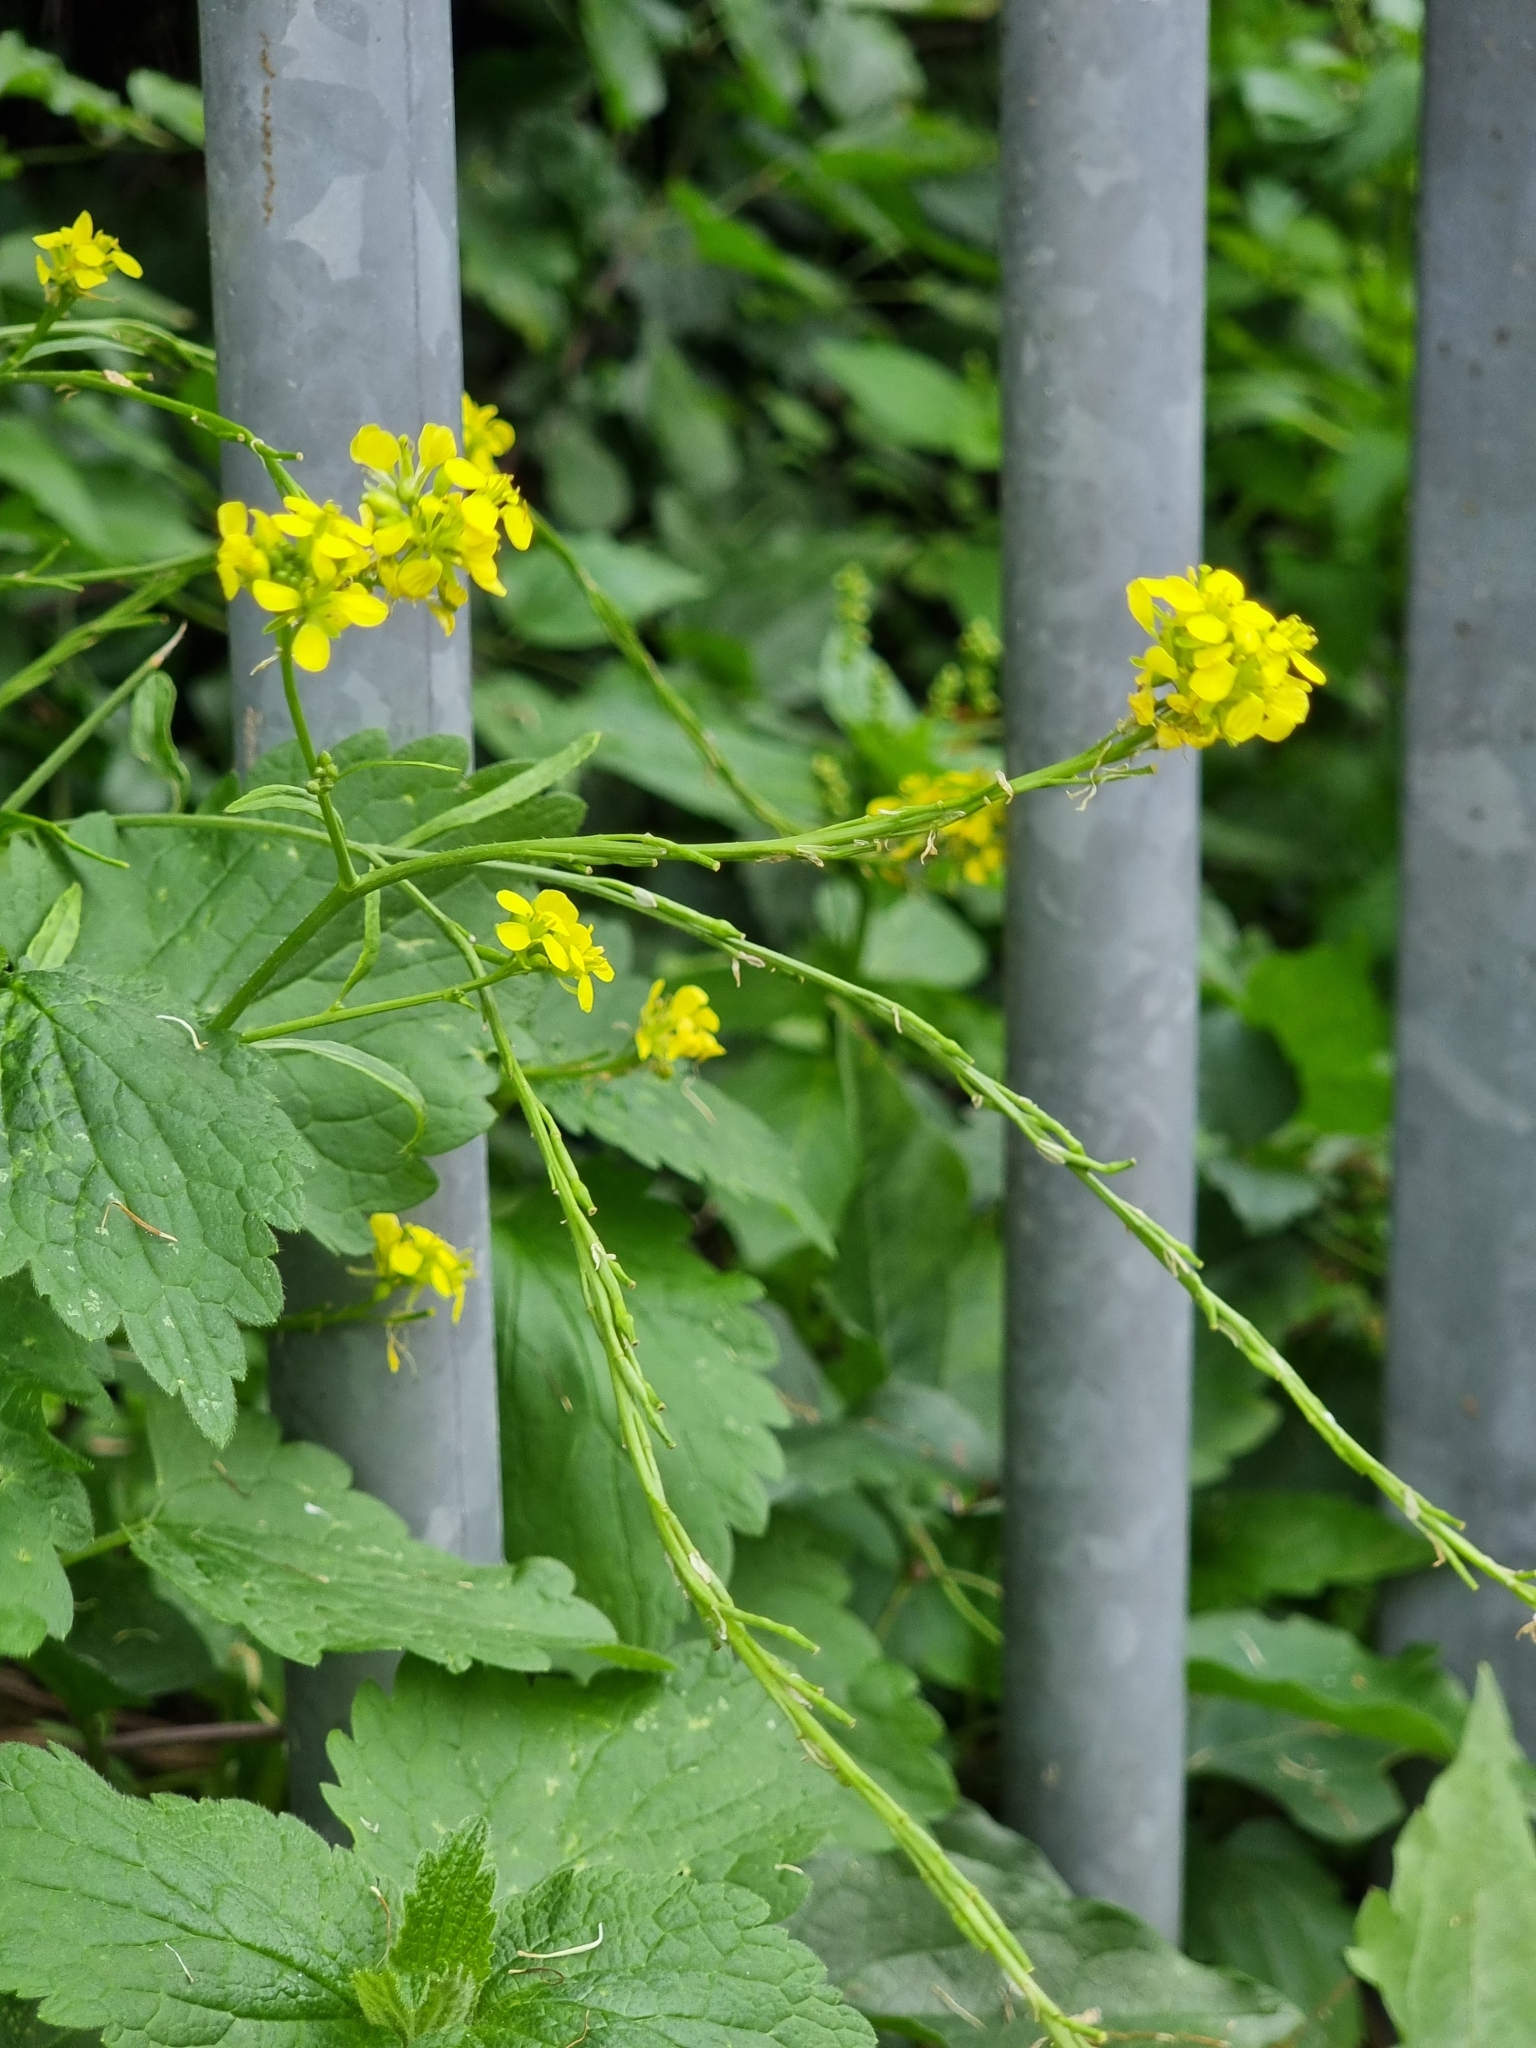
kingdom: Plantae
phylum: Tracheophyta
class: Magnoliopsida
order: Brassicales
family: Brassicaceae
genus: Hirschfeldia
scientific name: Hirschfeldia incana
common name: Hoary mustard
